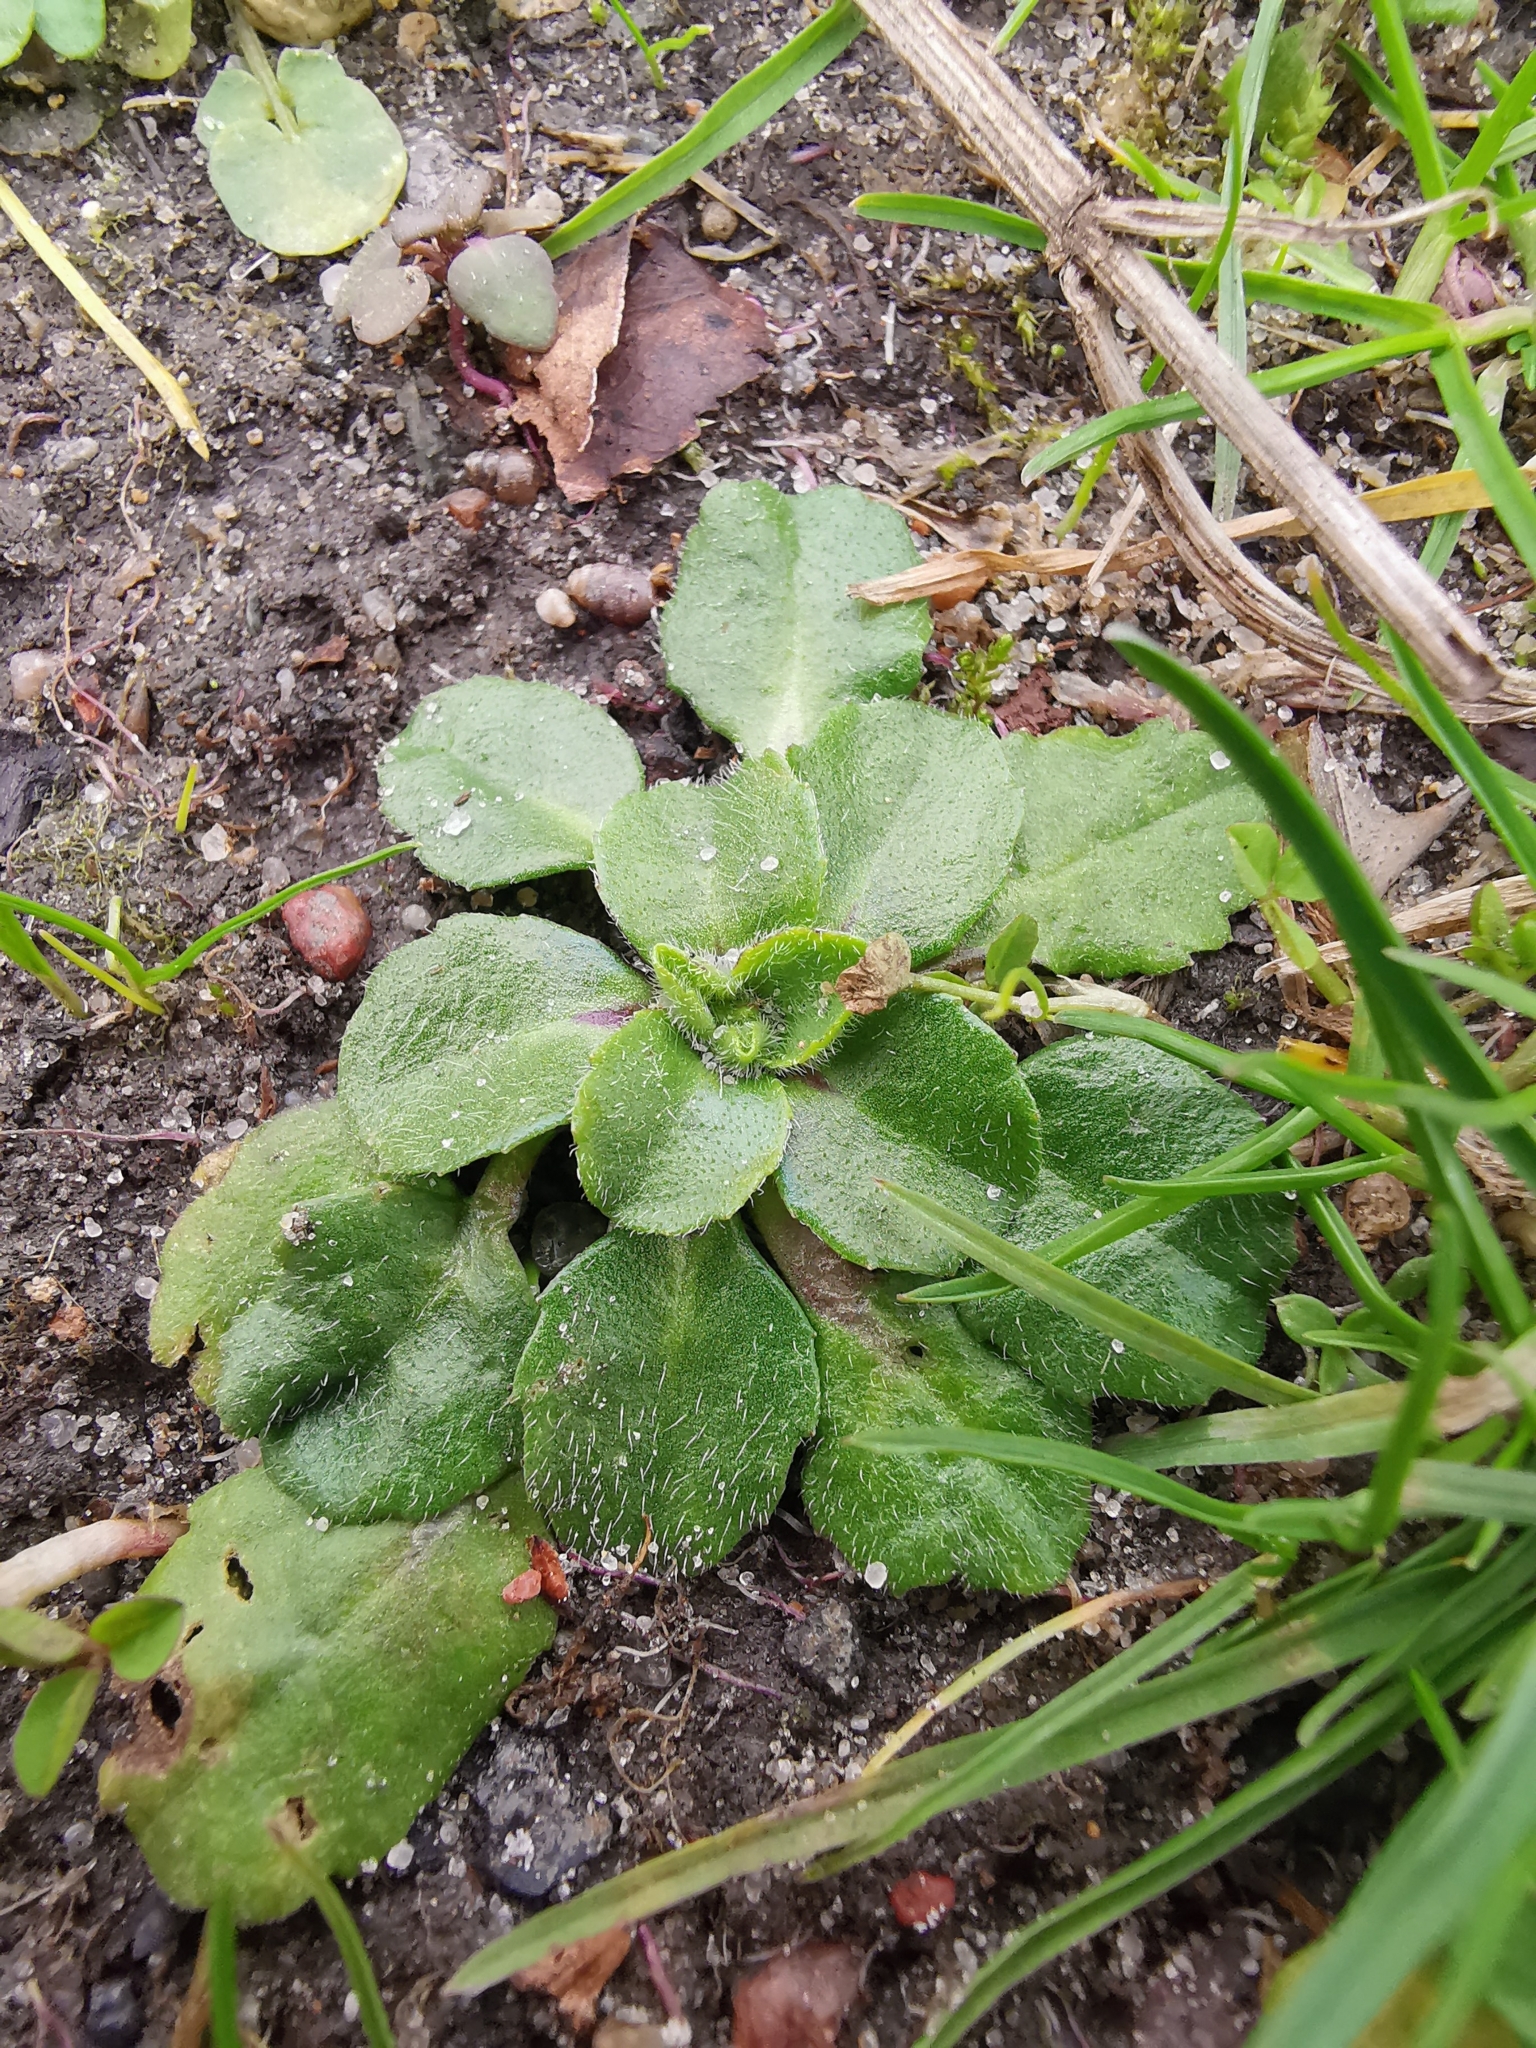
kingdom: Plantae
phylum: Tracheophyta
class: Magnoliopsida
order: Asterales
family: Asteraceae
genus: Bellis
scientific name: Bellis perennis
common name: Lawndaisy
